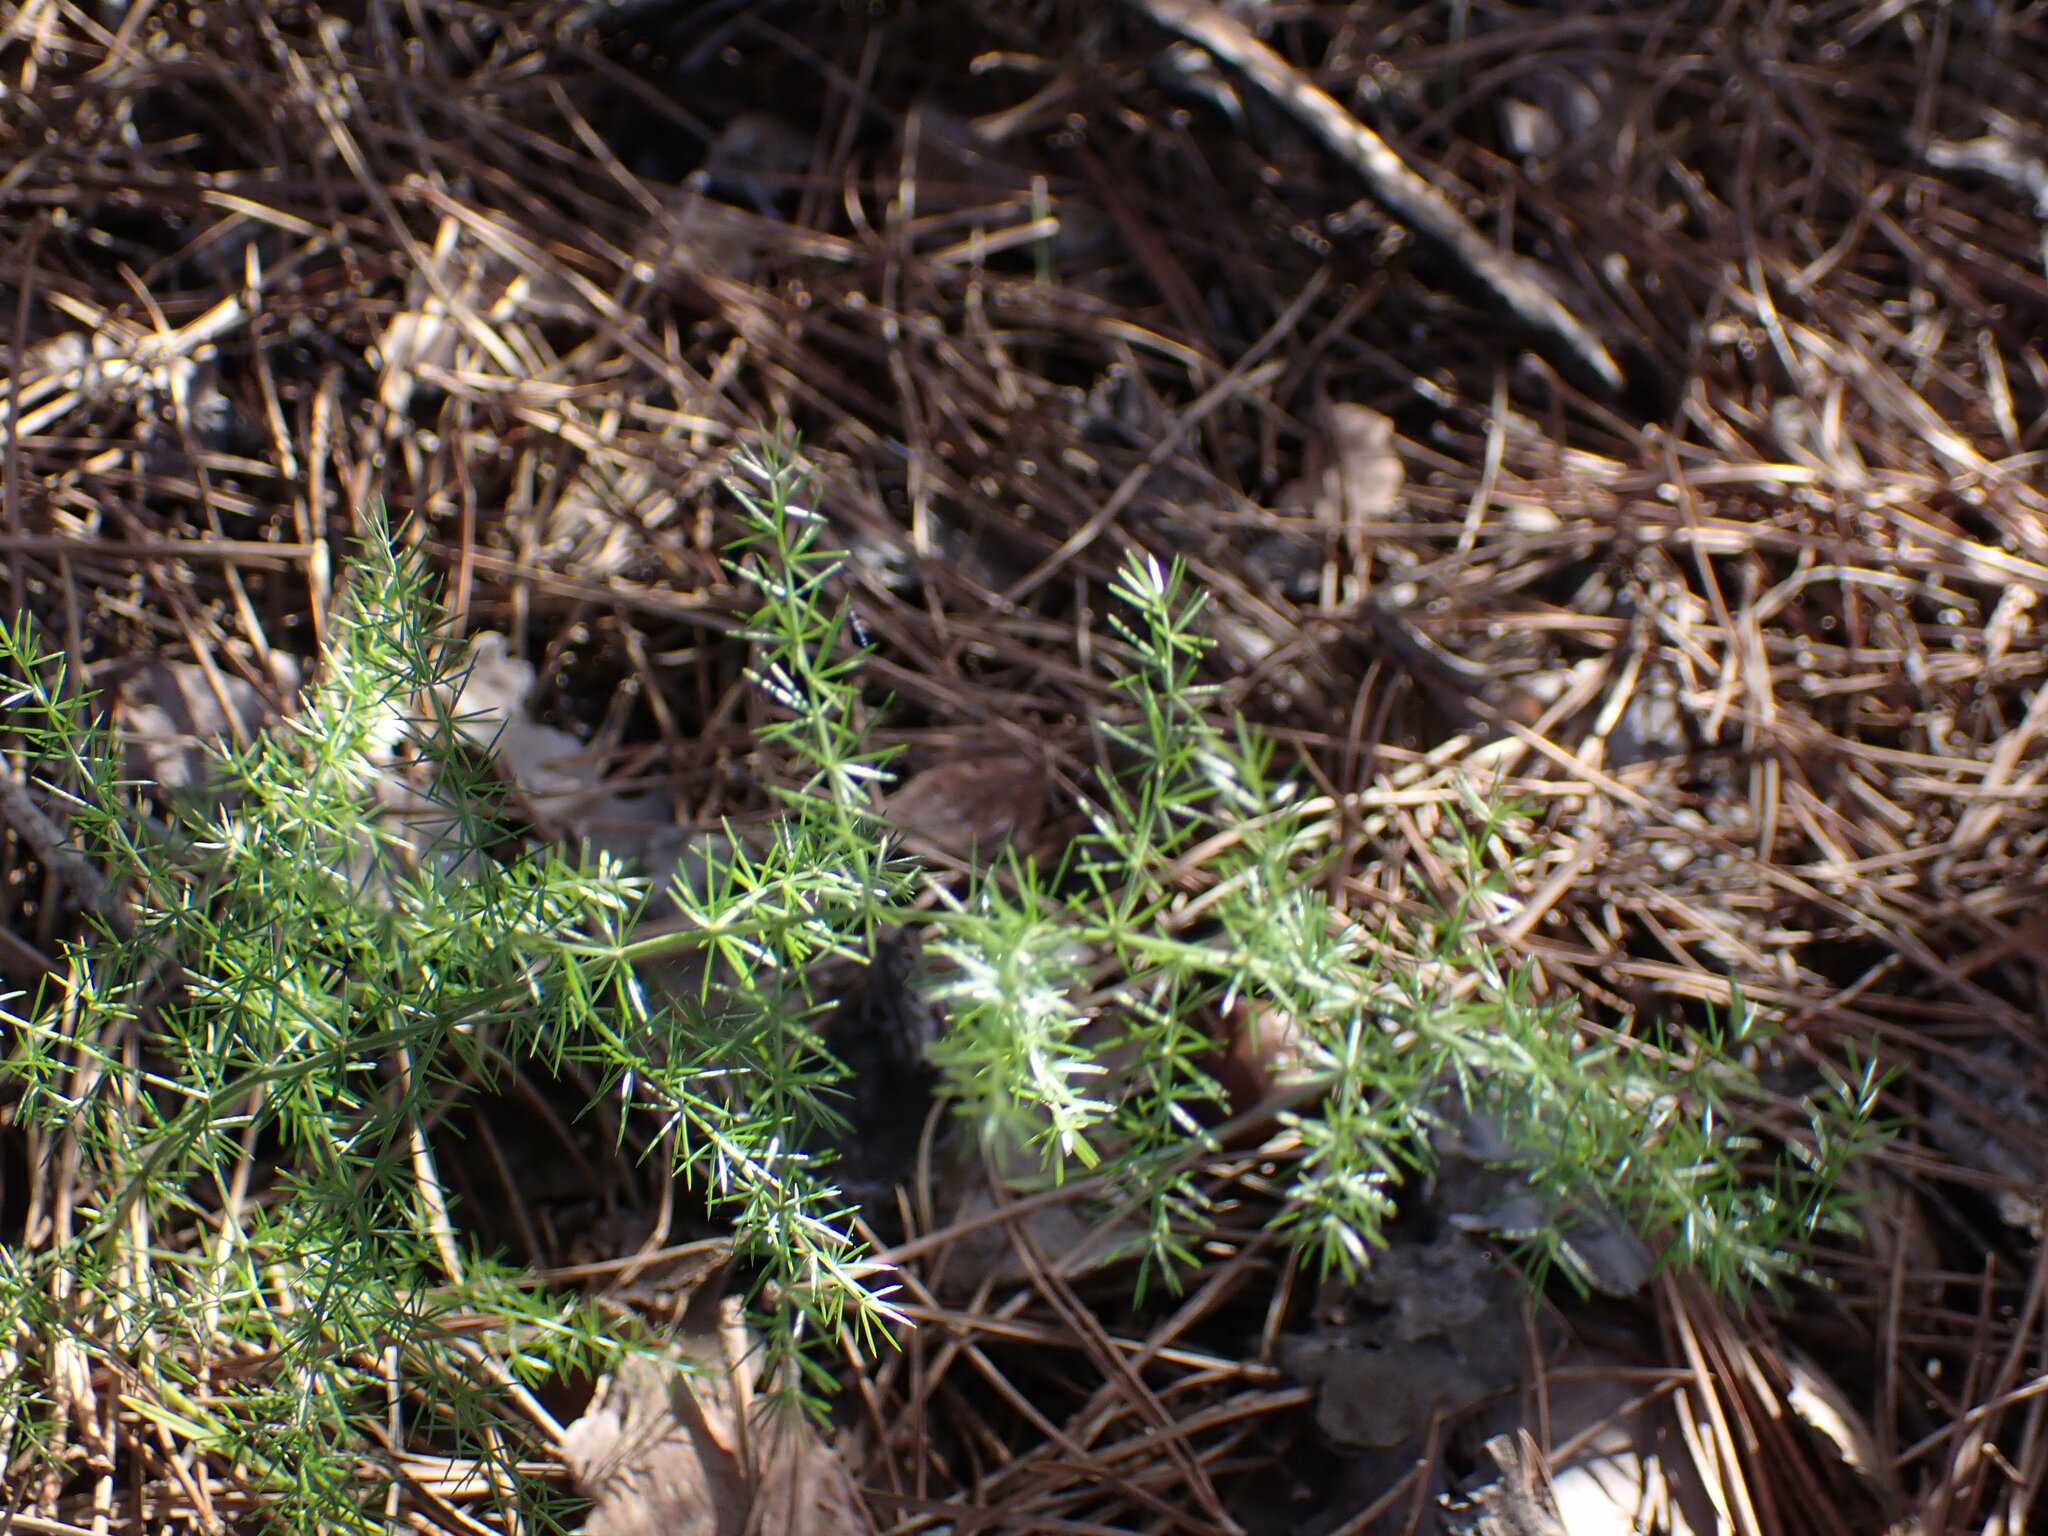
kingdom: Plantae
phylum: Tracheophyta
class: Liliopsida
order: Asparagales
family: Asparagaceae
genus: Asparagus
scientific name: Asparagus acutifolius
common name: Wild asparagus
